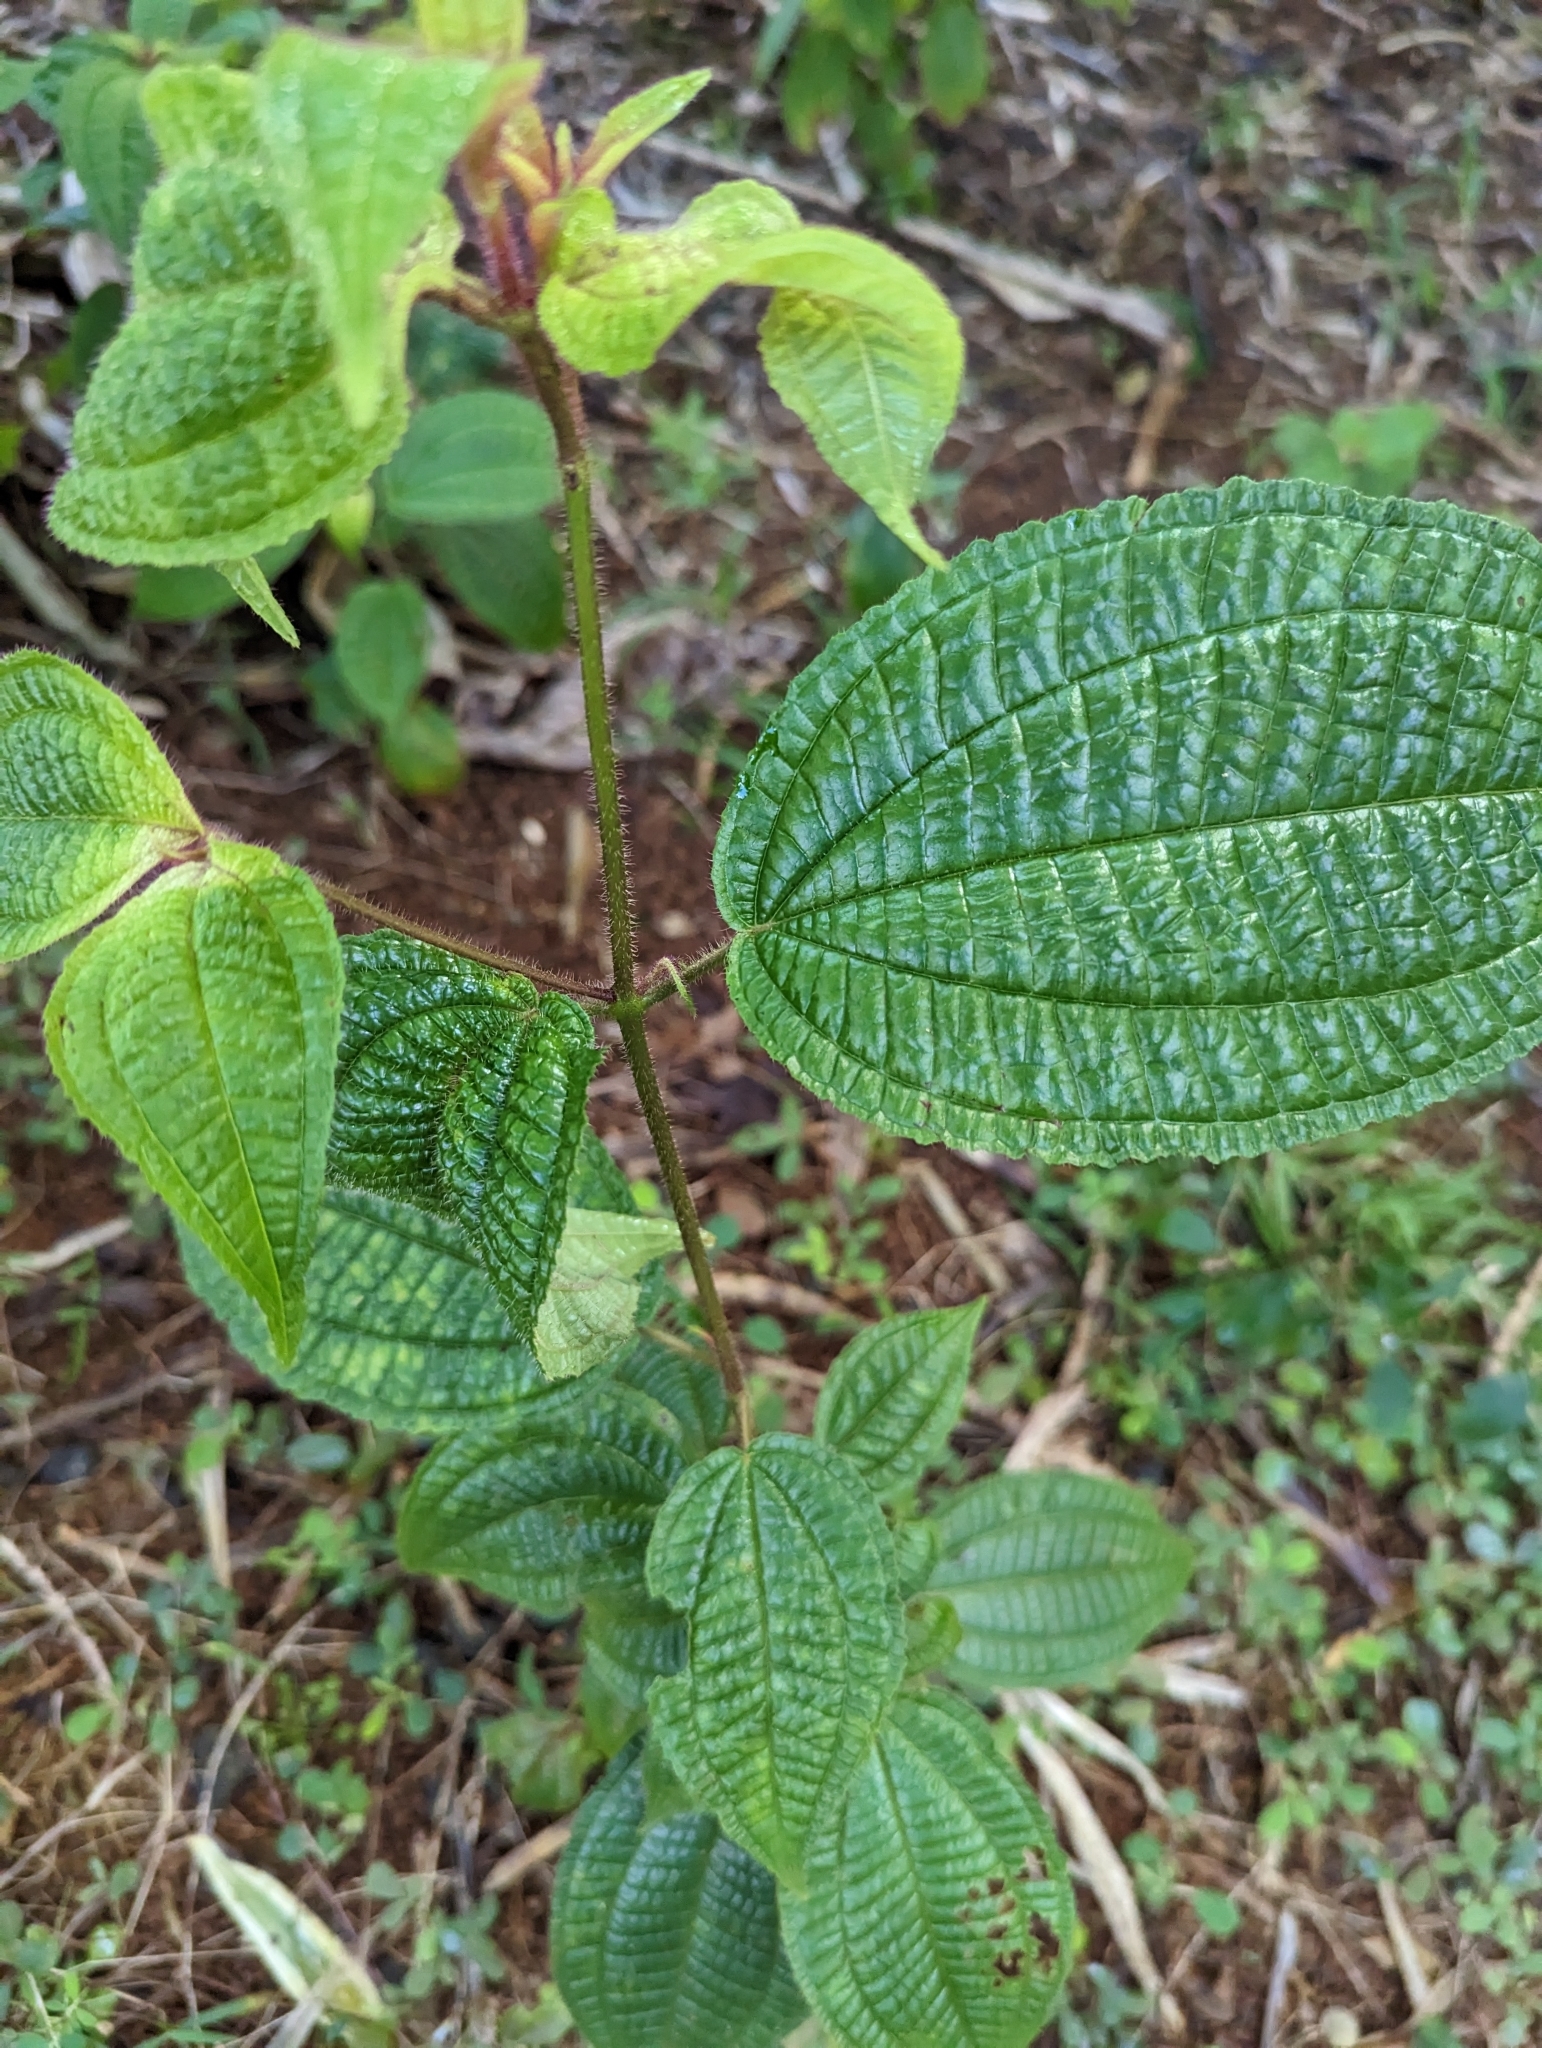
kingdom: Plantae
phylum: Tracheophyta
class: Magnoliopsida
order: Myrtales
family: Melastomataceae
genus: Miconia
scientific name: Miconia crenata
